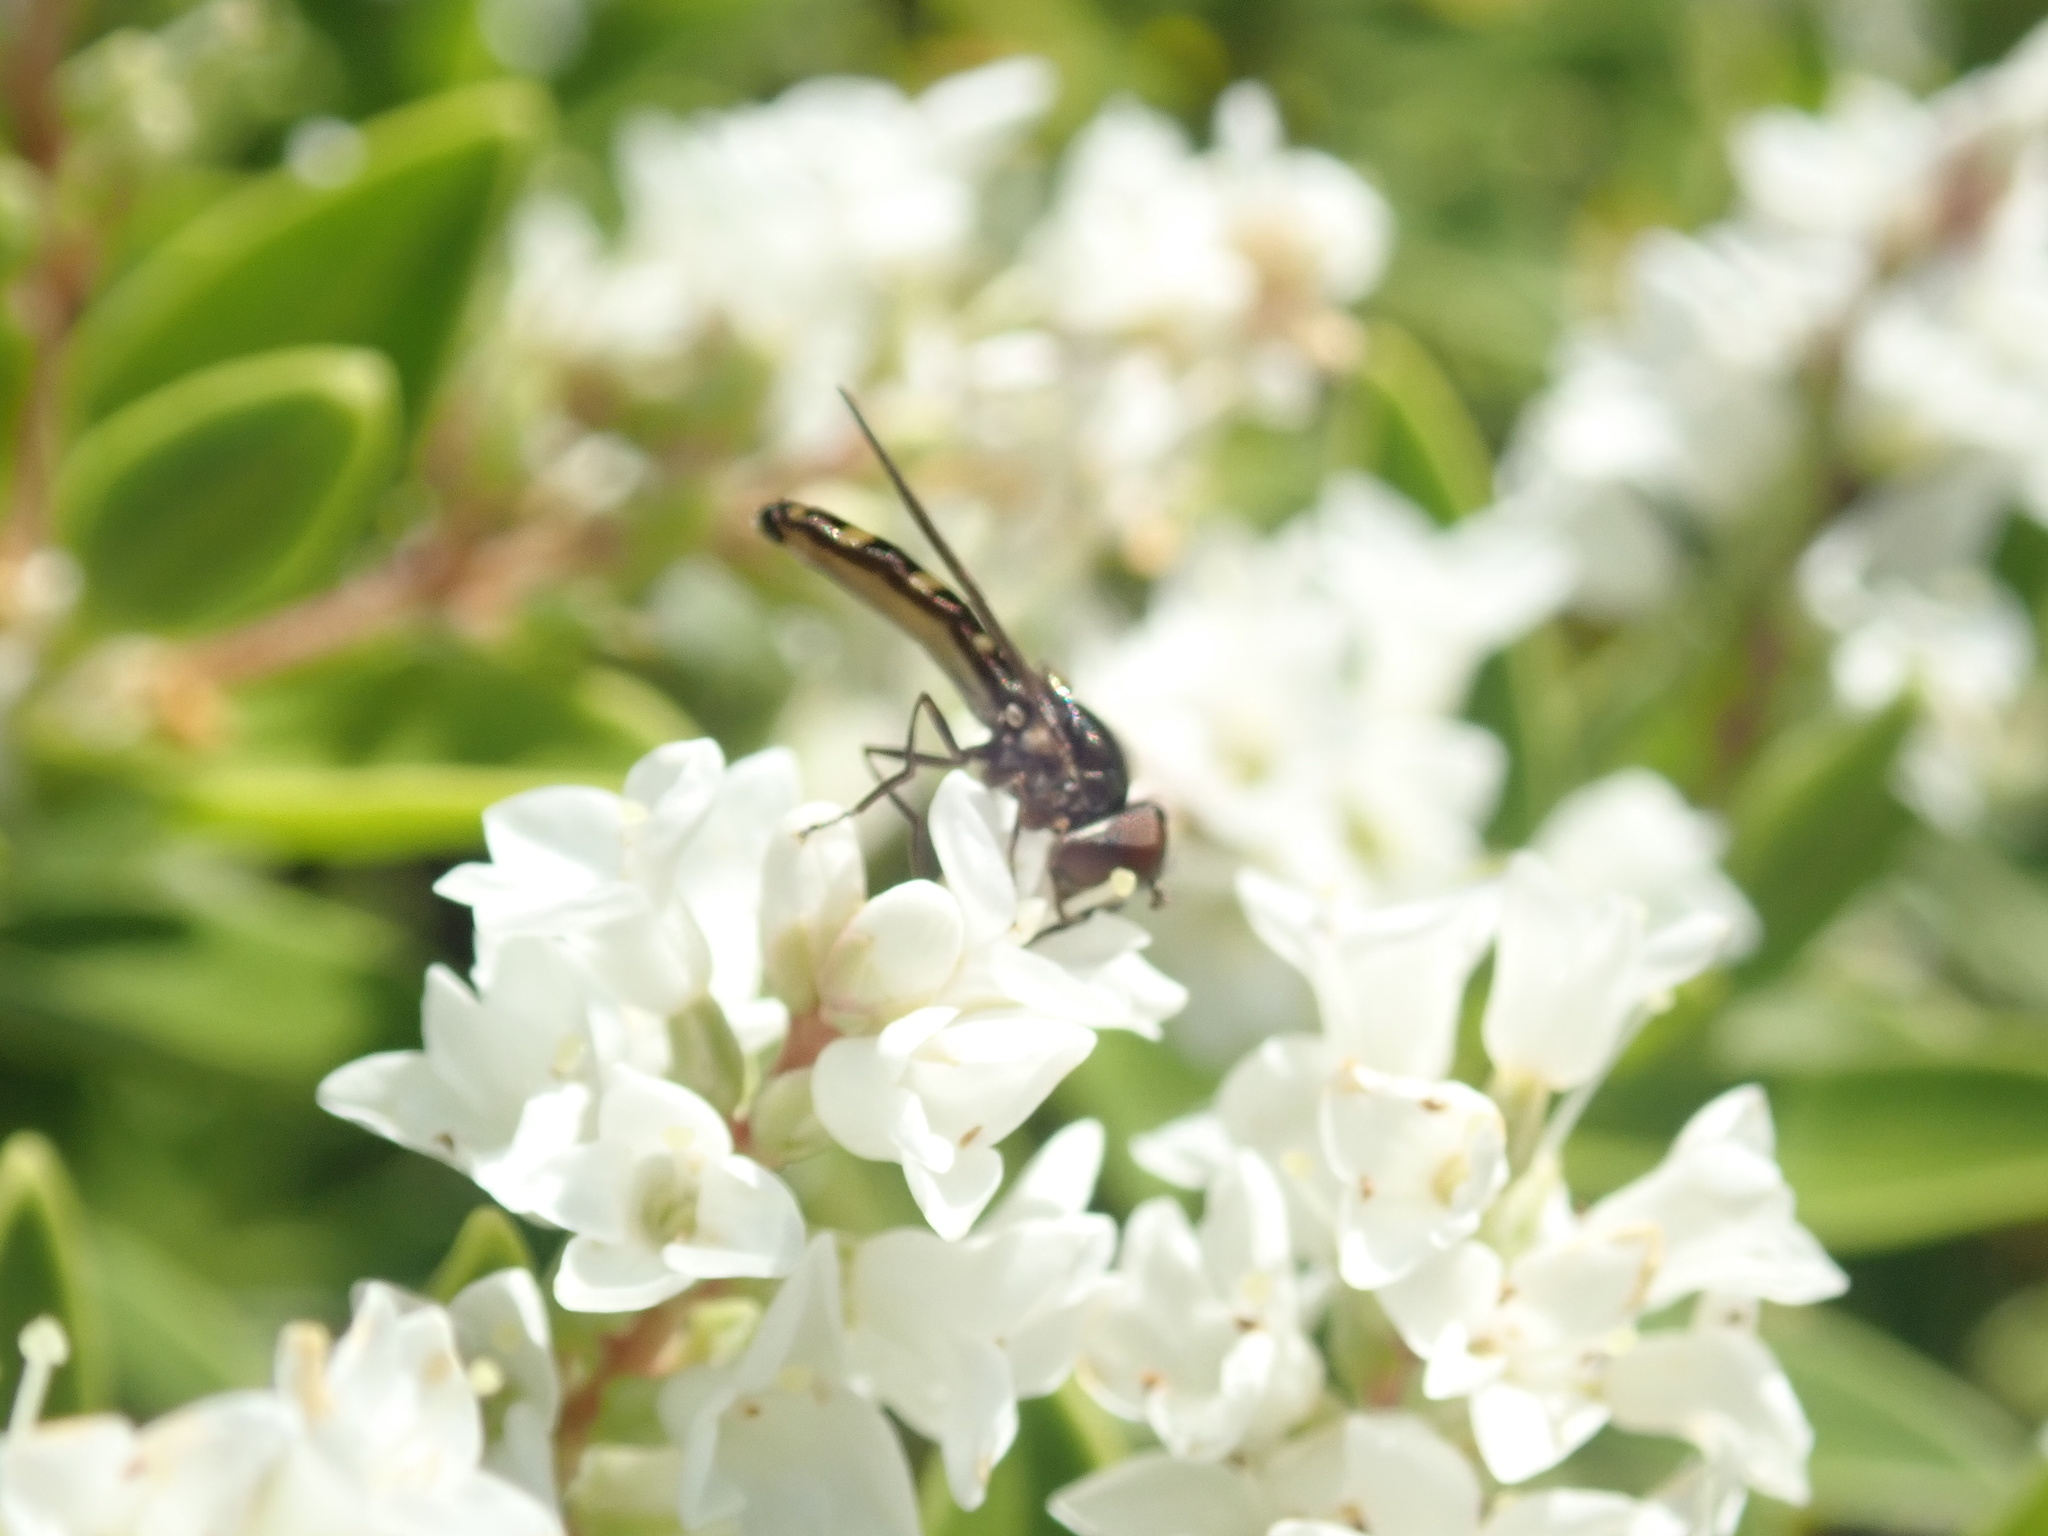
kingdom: Animalia
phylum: Arthropoda
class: Insecta
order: Diptera
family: Syrphidae
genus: Melangyna
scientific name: Melangyna novaezelandiae
